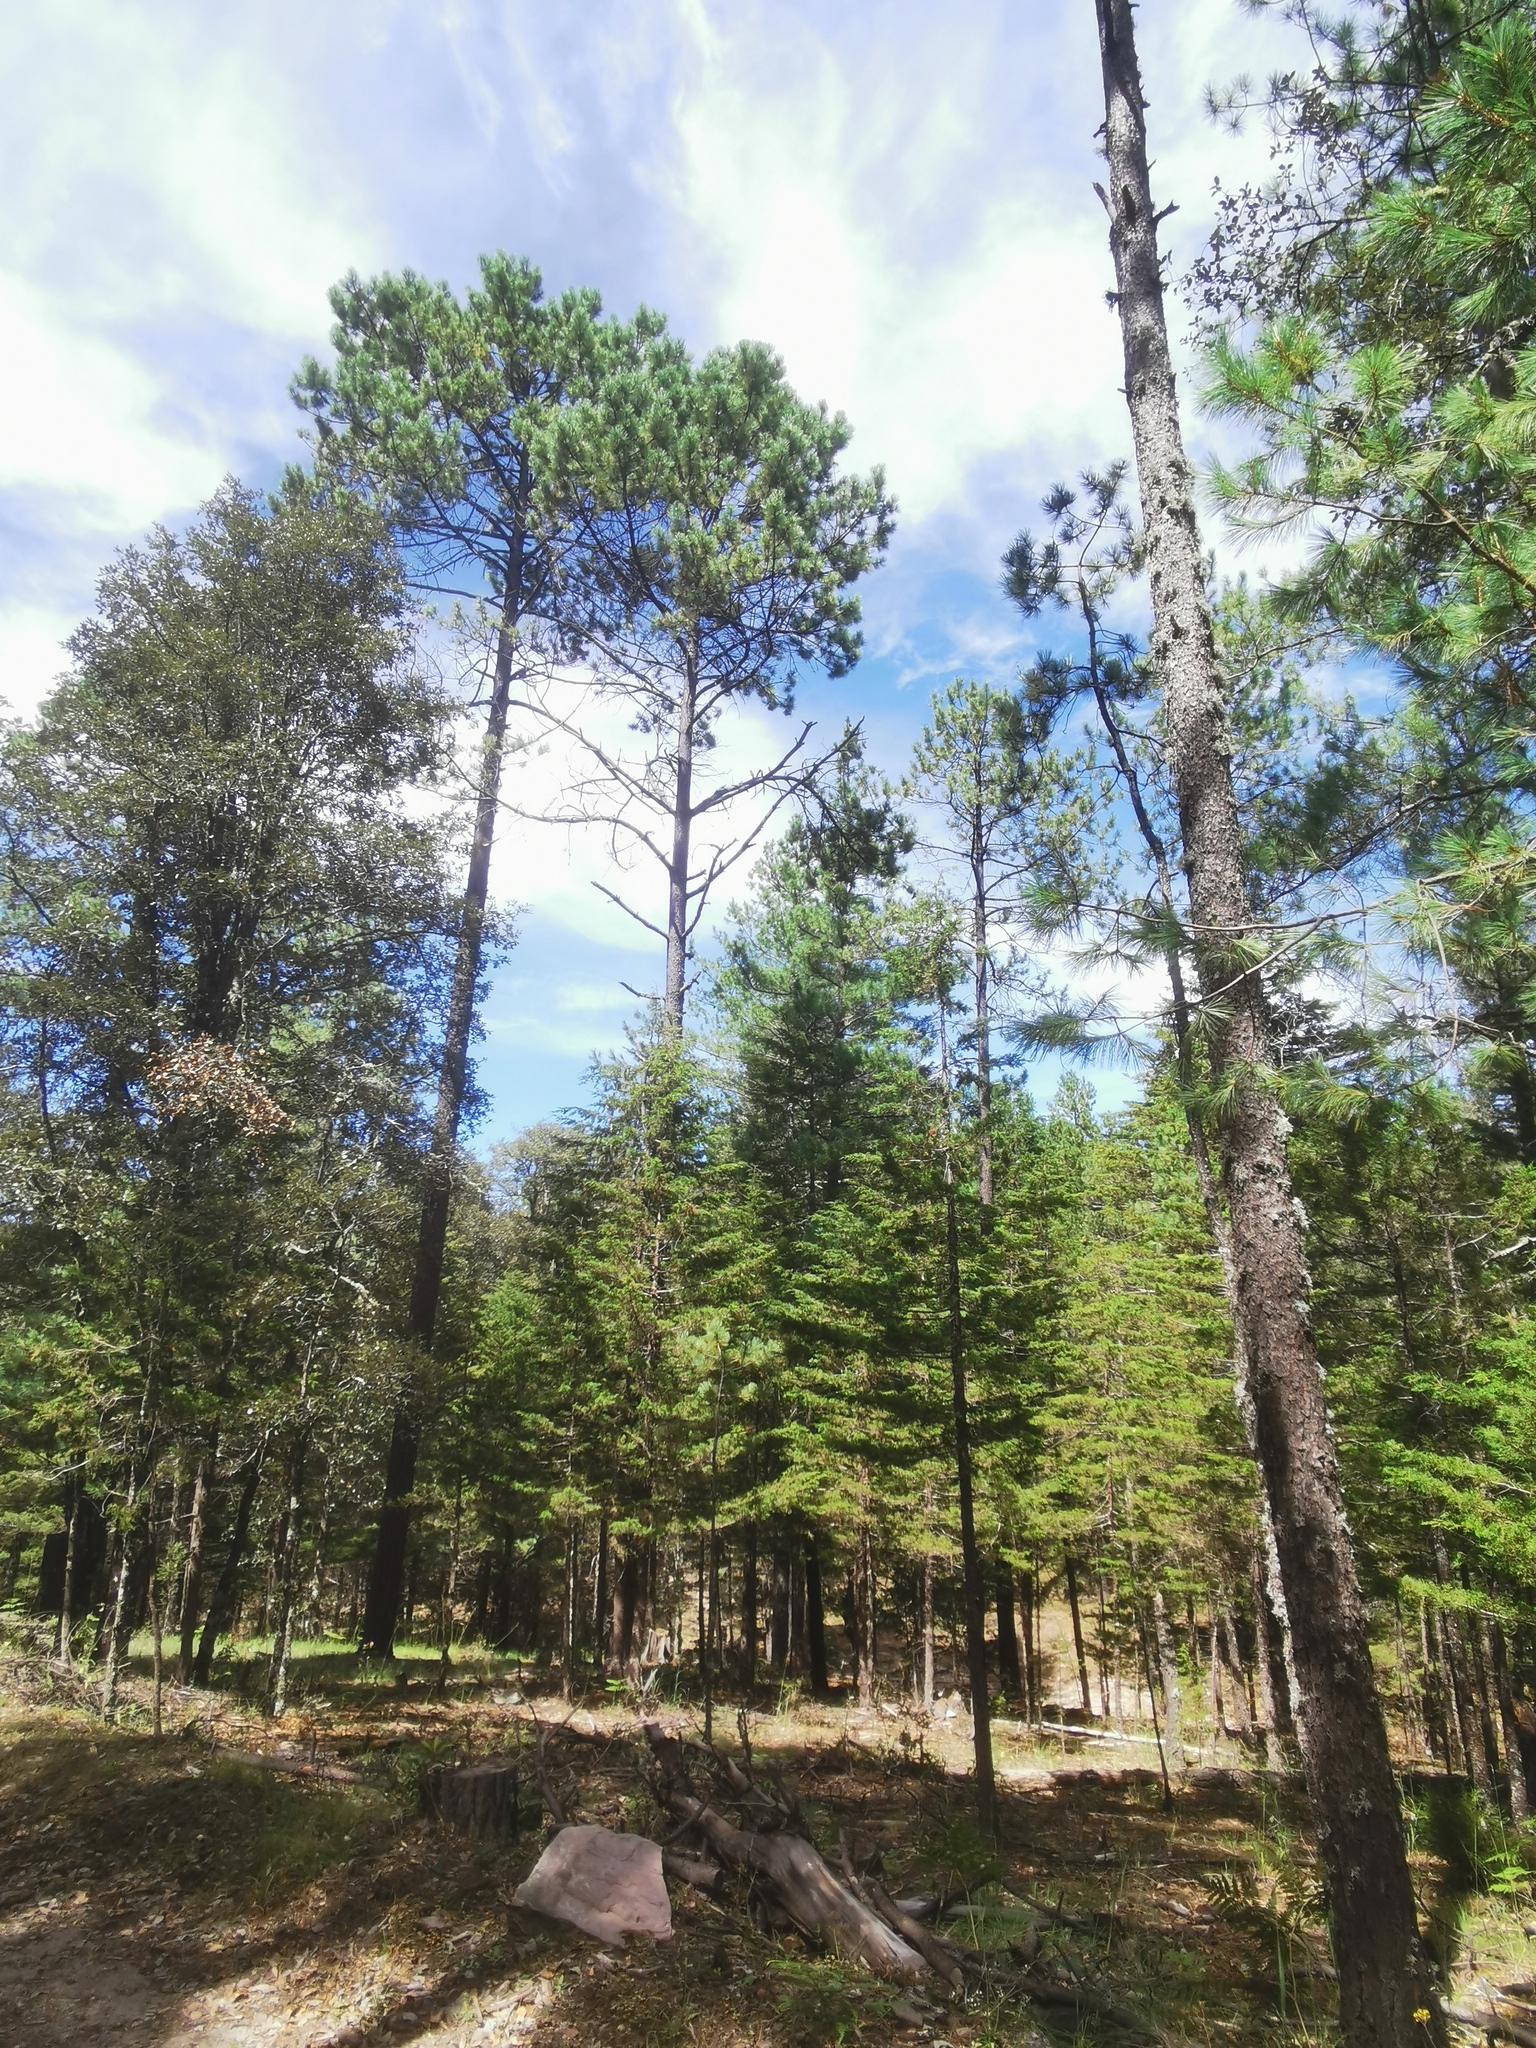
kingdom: Plantae
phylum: Tracheophyta
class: Pinopsida
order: Pinales
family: Cupressaceae
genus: Cupressus
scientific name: Cupressus lusitanica
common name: Mexican cypress
